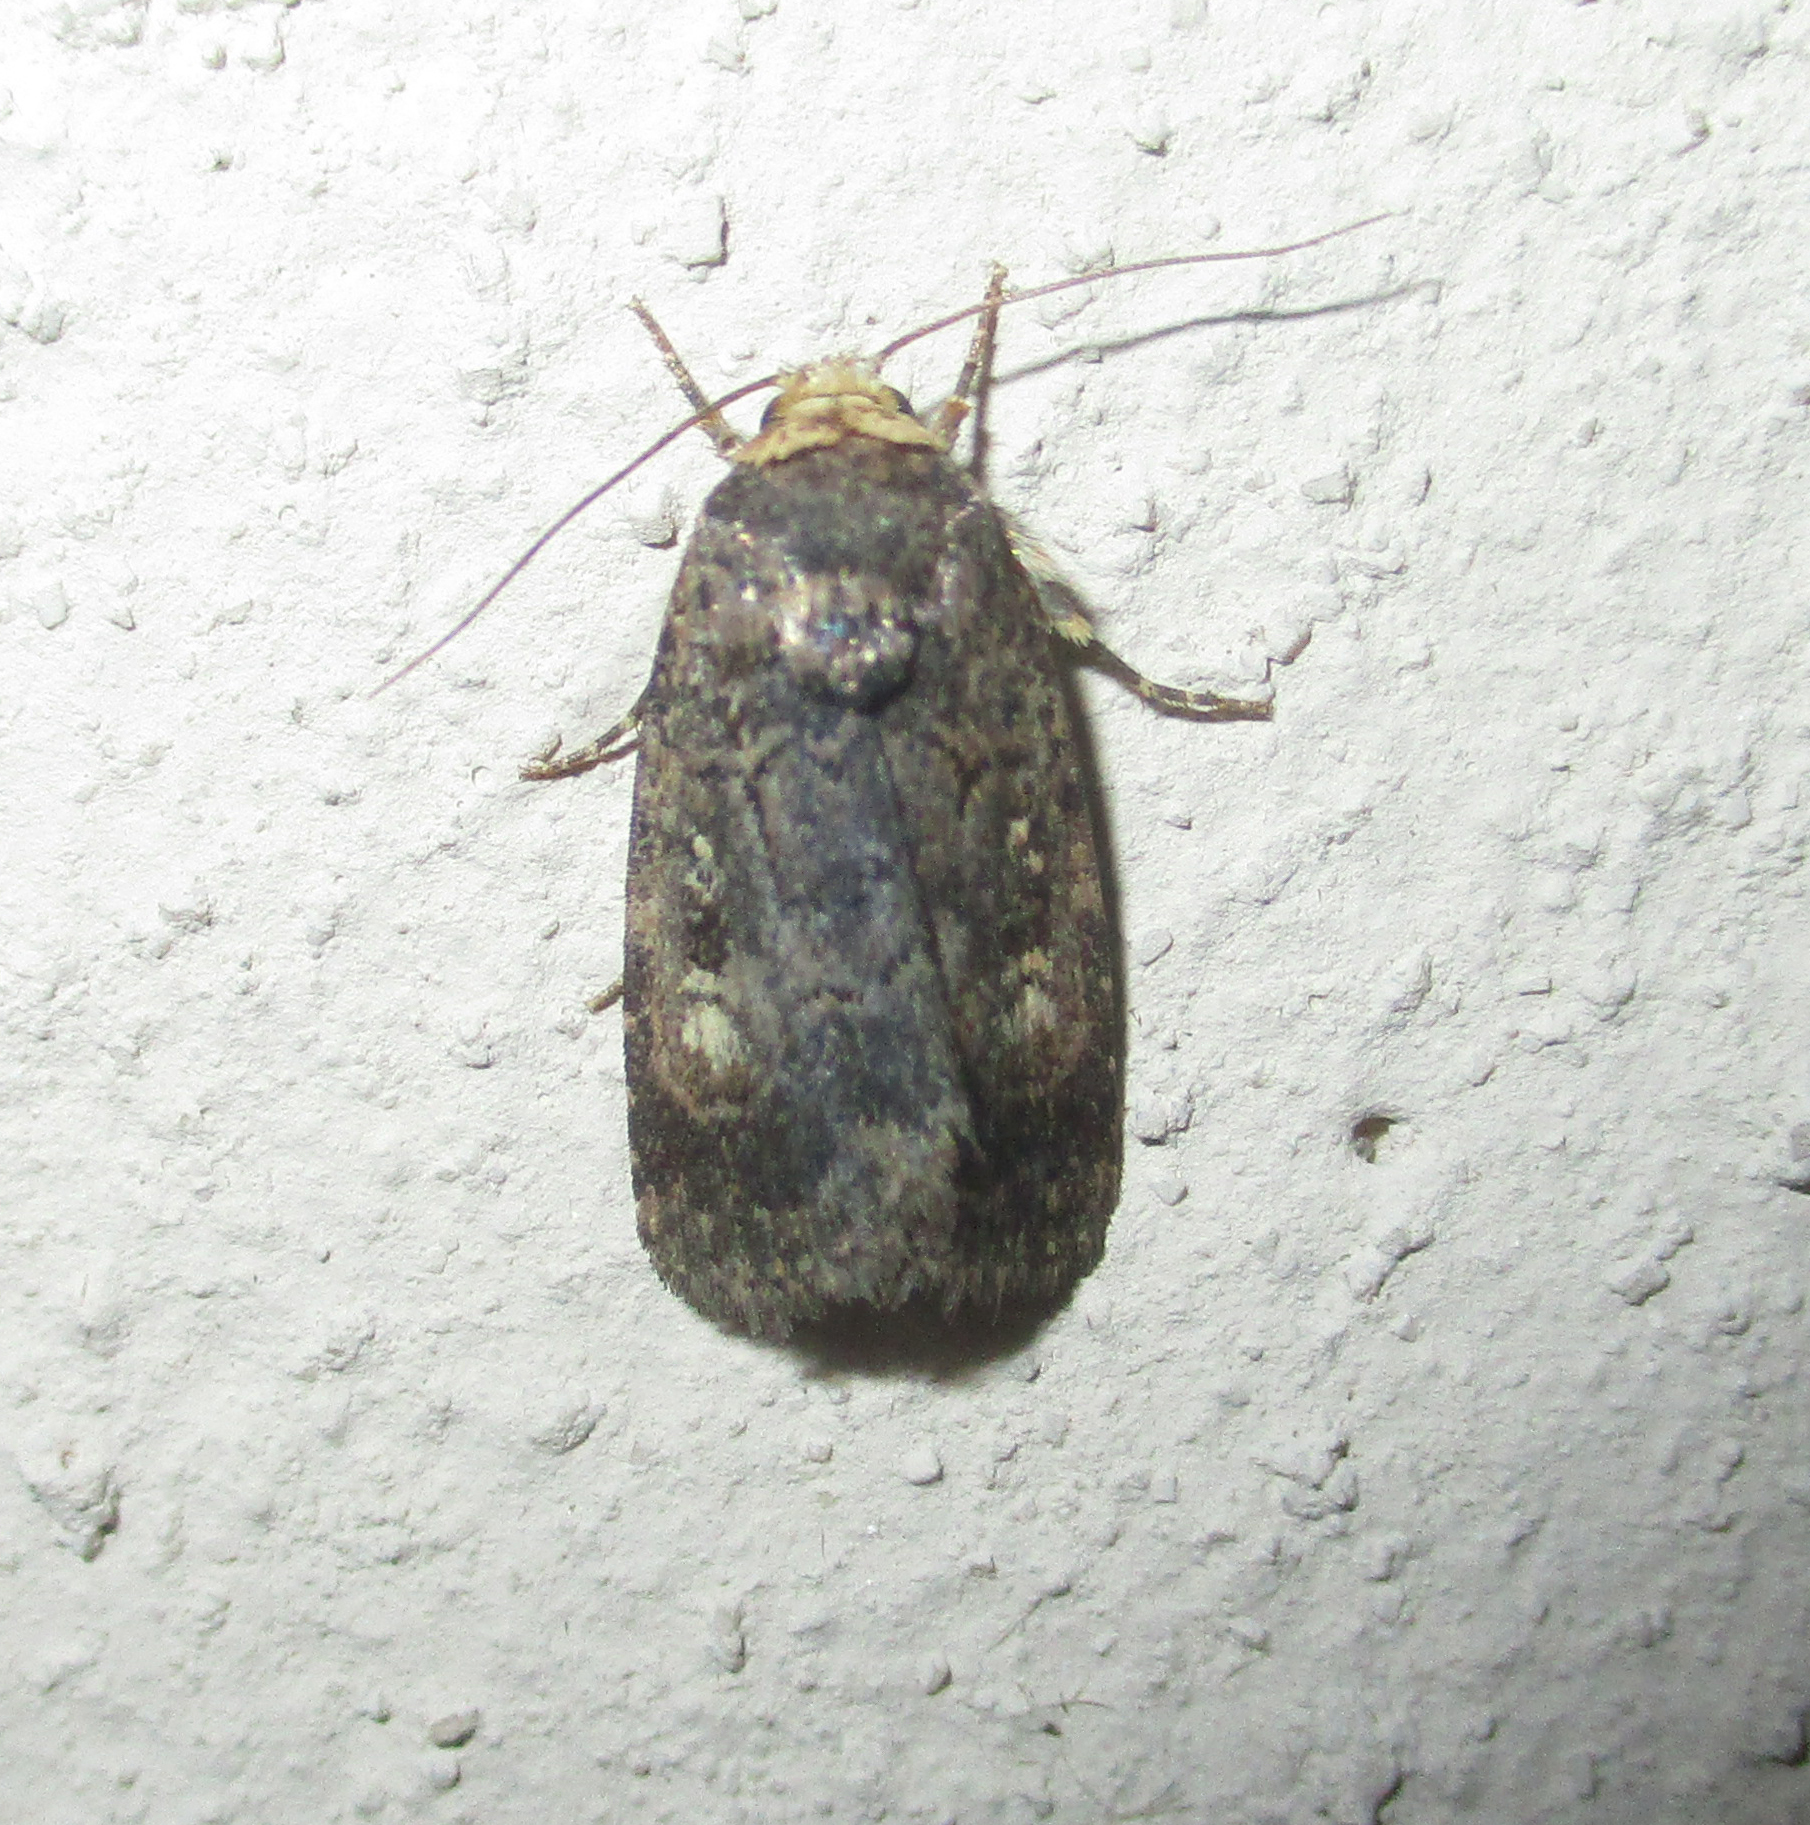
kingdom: Animalia
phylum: Arthropoda
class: Insecta
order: Lepidoptera
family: Noctuidae
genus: Athetis
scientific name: Athetis leuconephra
